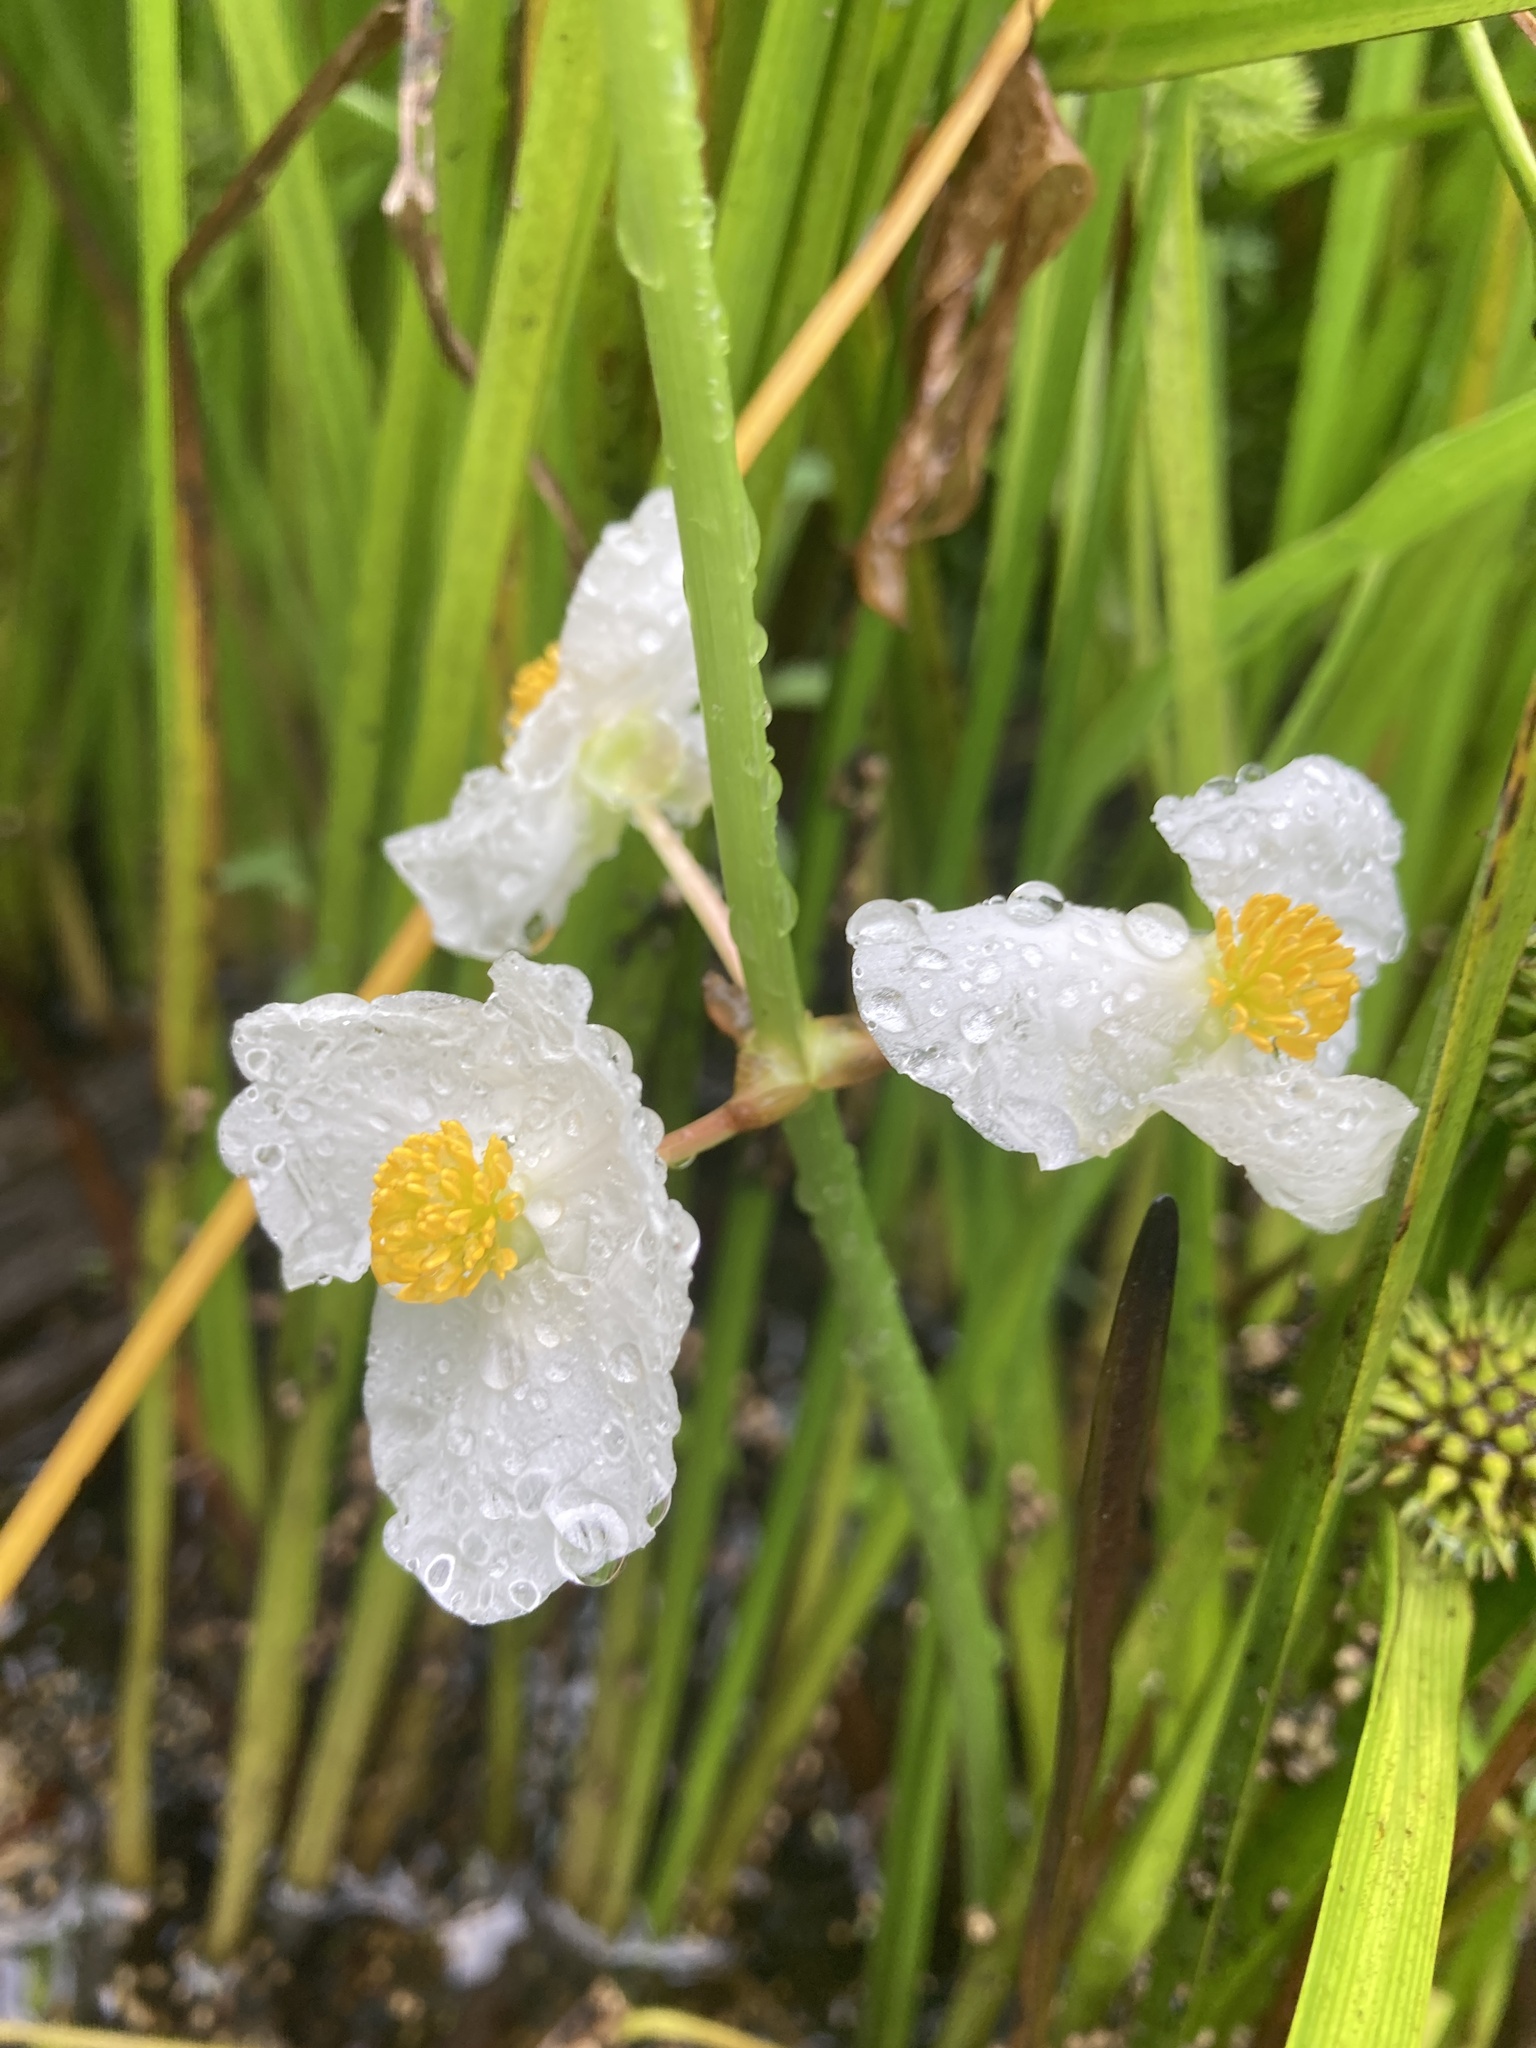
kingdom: Plantae
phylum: Tracheophyta
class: Liliopsida
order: Alismatales
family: Alismataceae
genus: Sagittaria
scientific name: Sagittaria latifolia
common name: Duck-potato
